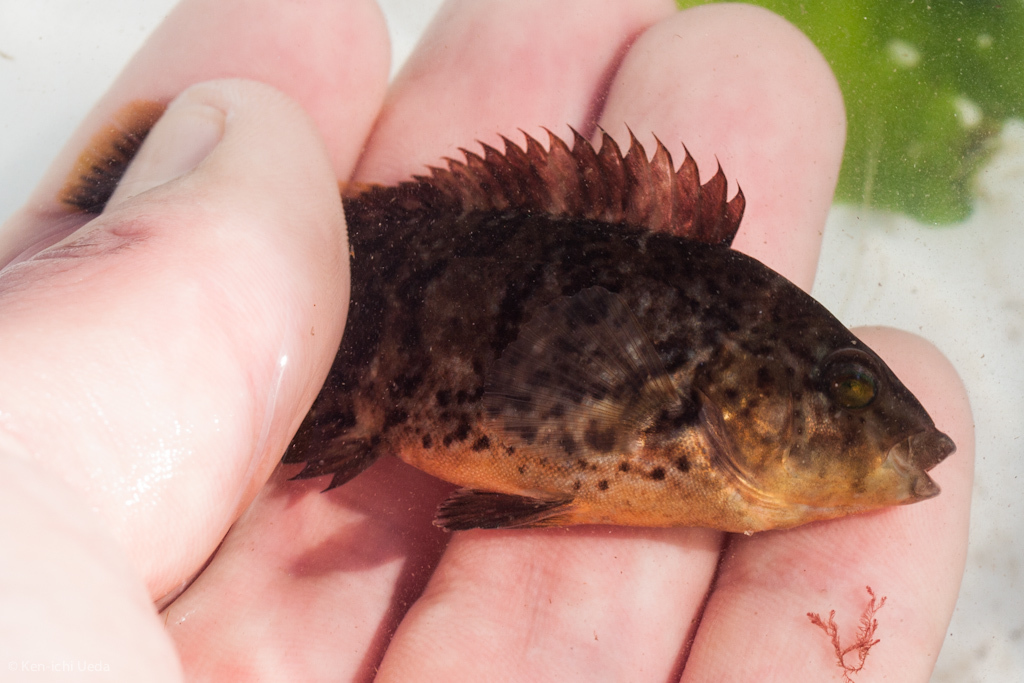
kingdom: Animalia
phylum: Chordata
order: Perciformes
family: Labridae
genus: Tautoga
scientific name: Tautoga onitis
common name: Tautog
